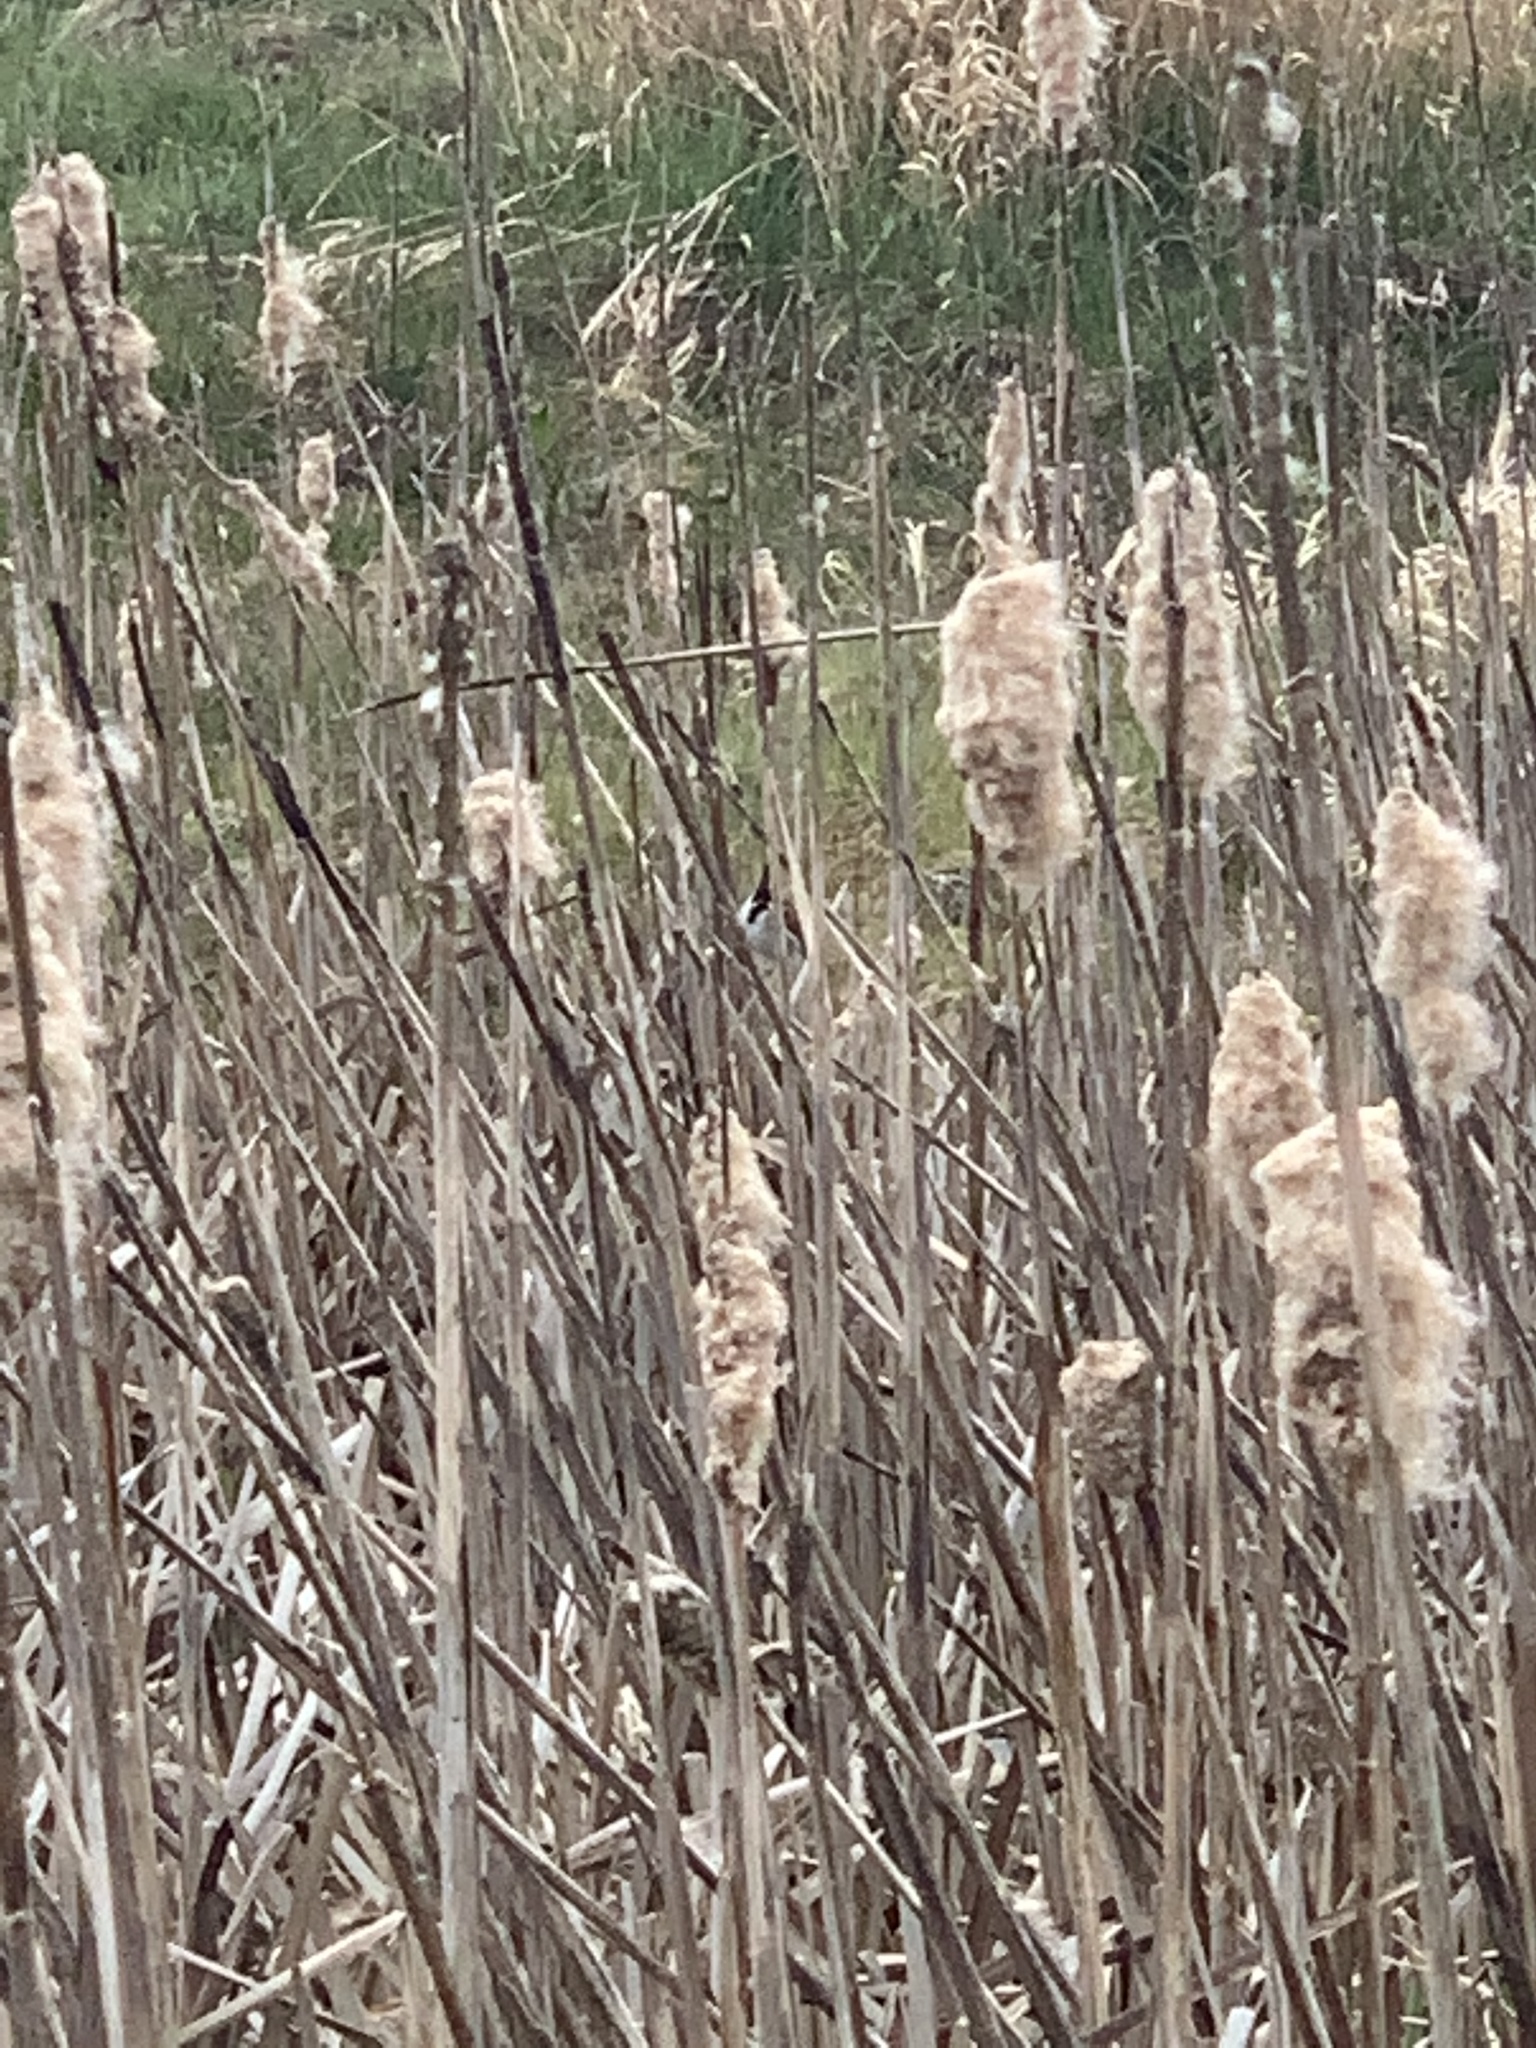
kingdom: Animalia
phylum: Chordata
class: Aves
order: Passeriformes
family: Emberizidae
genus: Emberiza
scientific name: Emberiza schoeniclus
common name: Reed bunting
